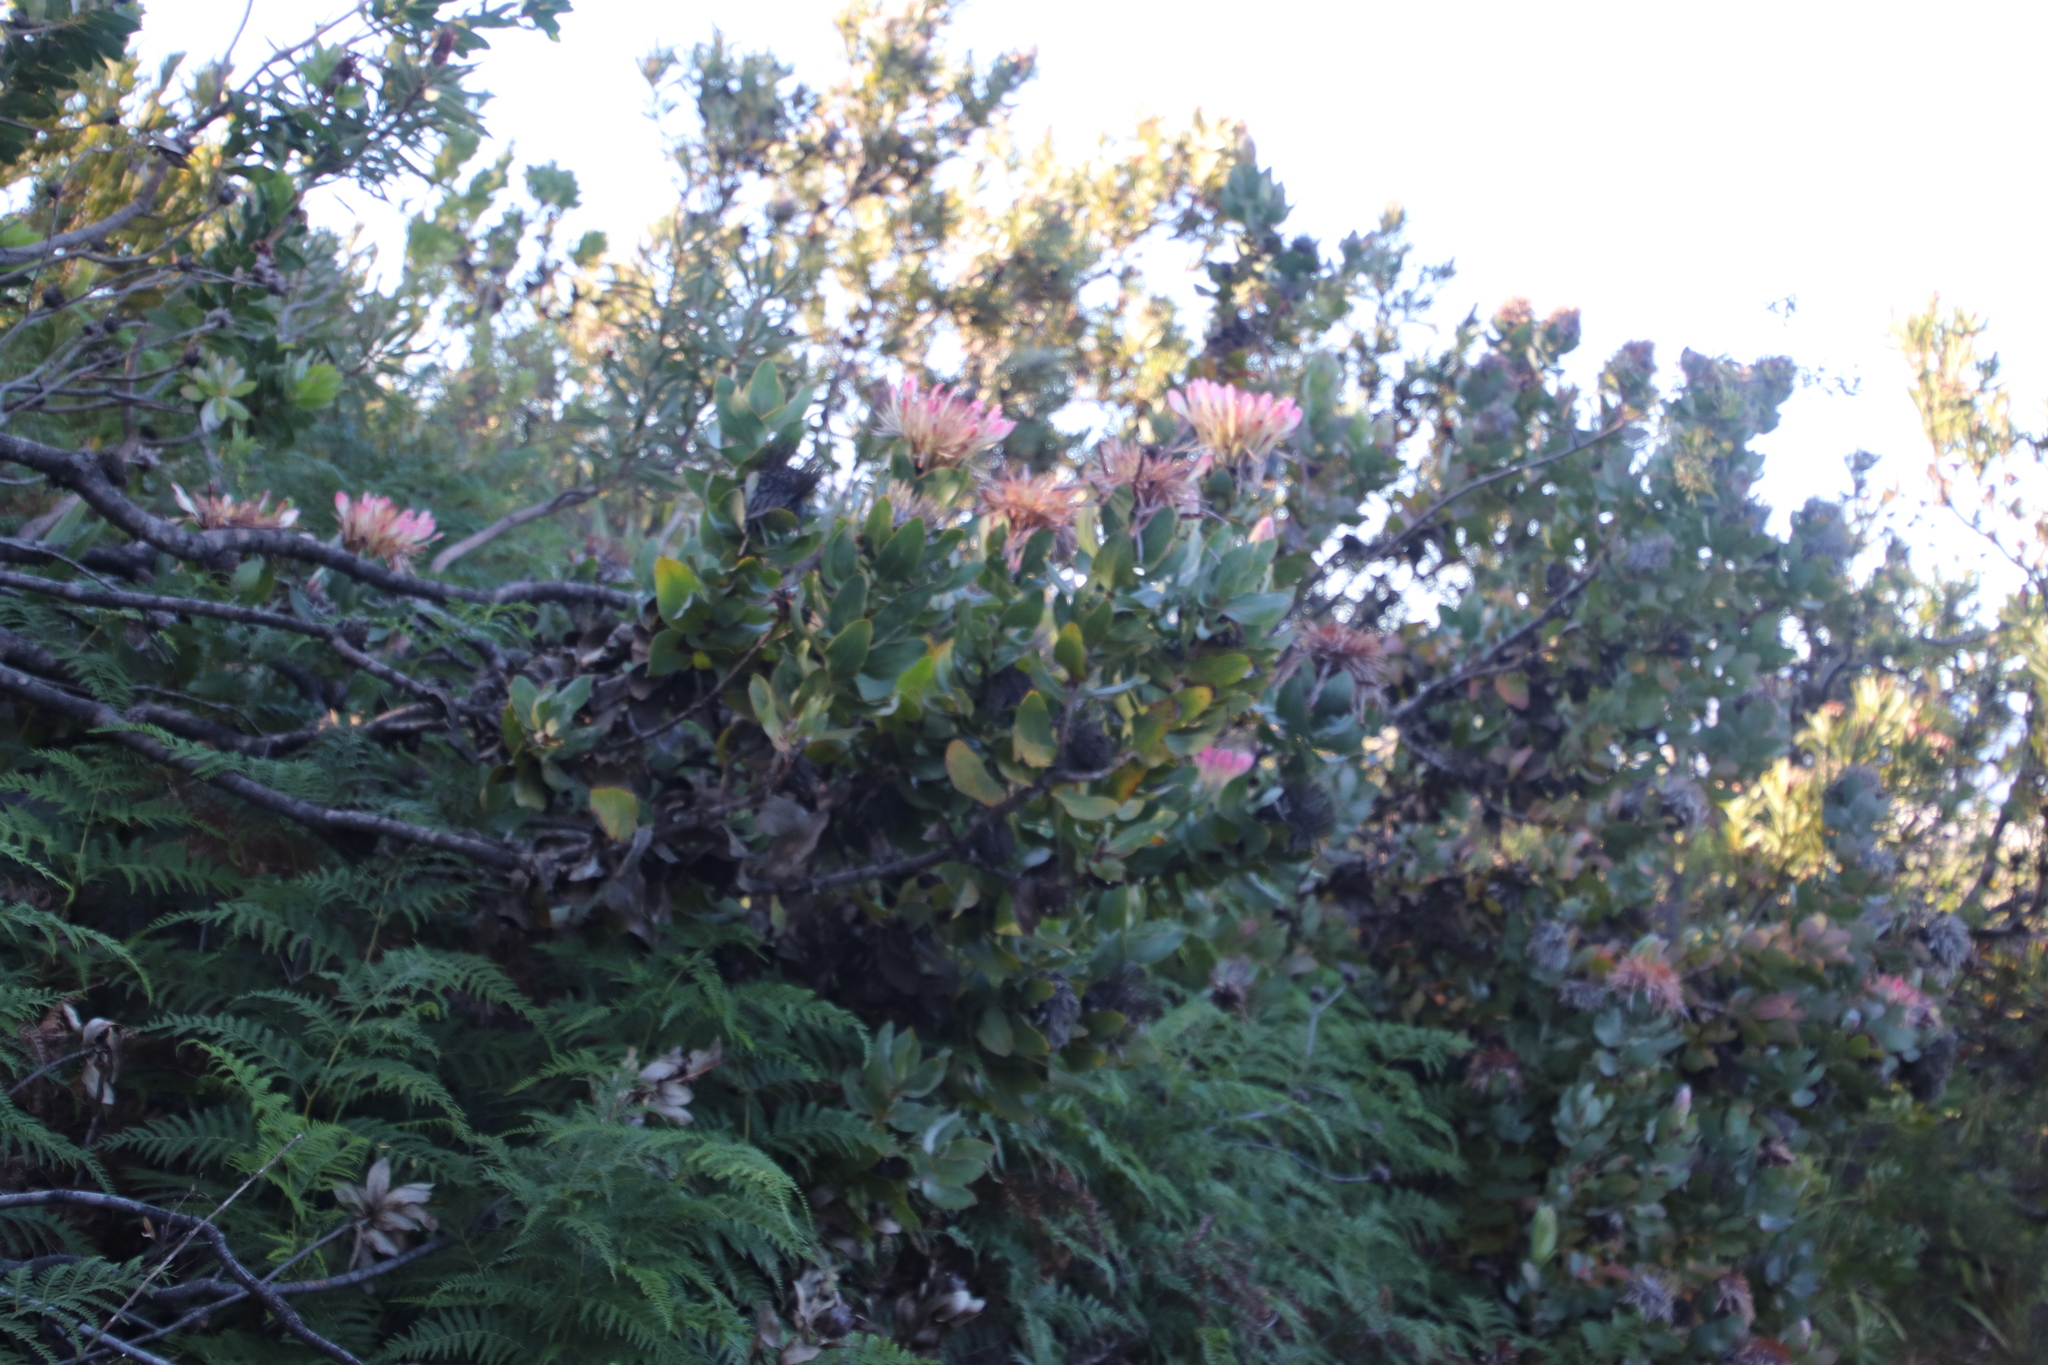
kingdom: Plantae
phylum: Tracheophyta
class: Magnoliopsida
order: Proteales
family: Proteaceae
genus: Protea
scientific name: Protea eximia
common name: Broad-leaved sugarbush
